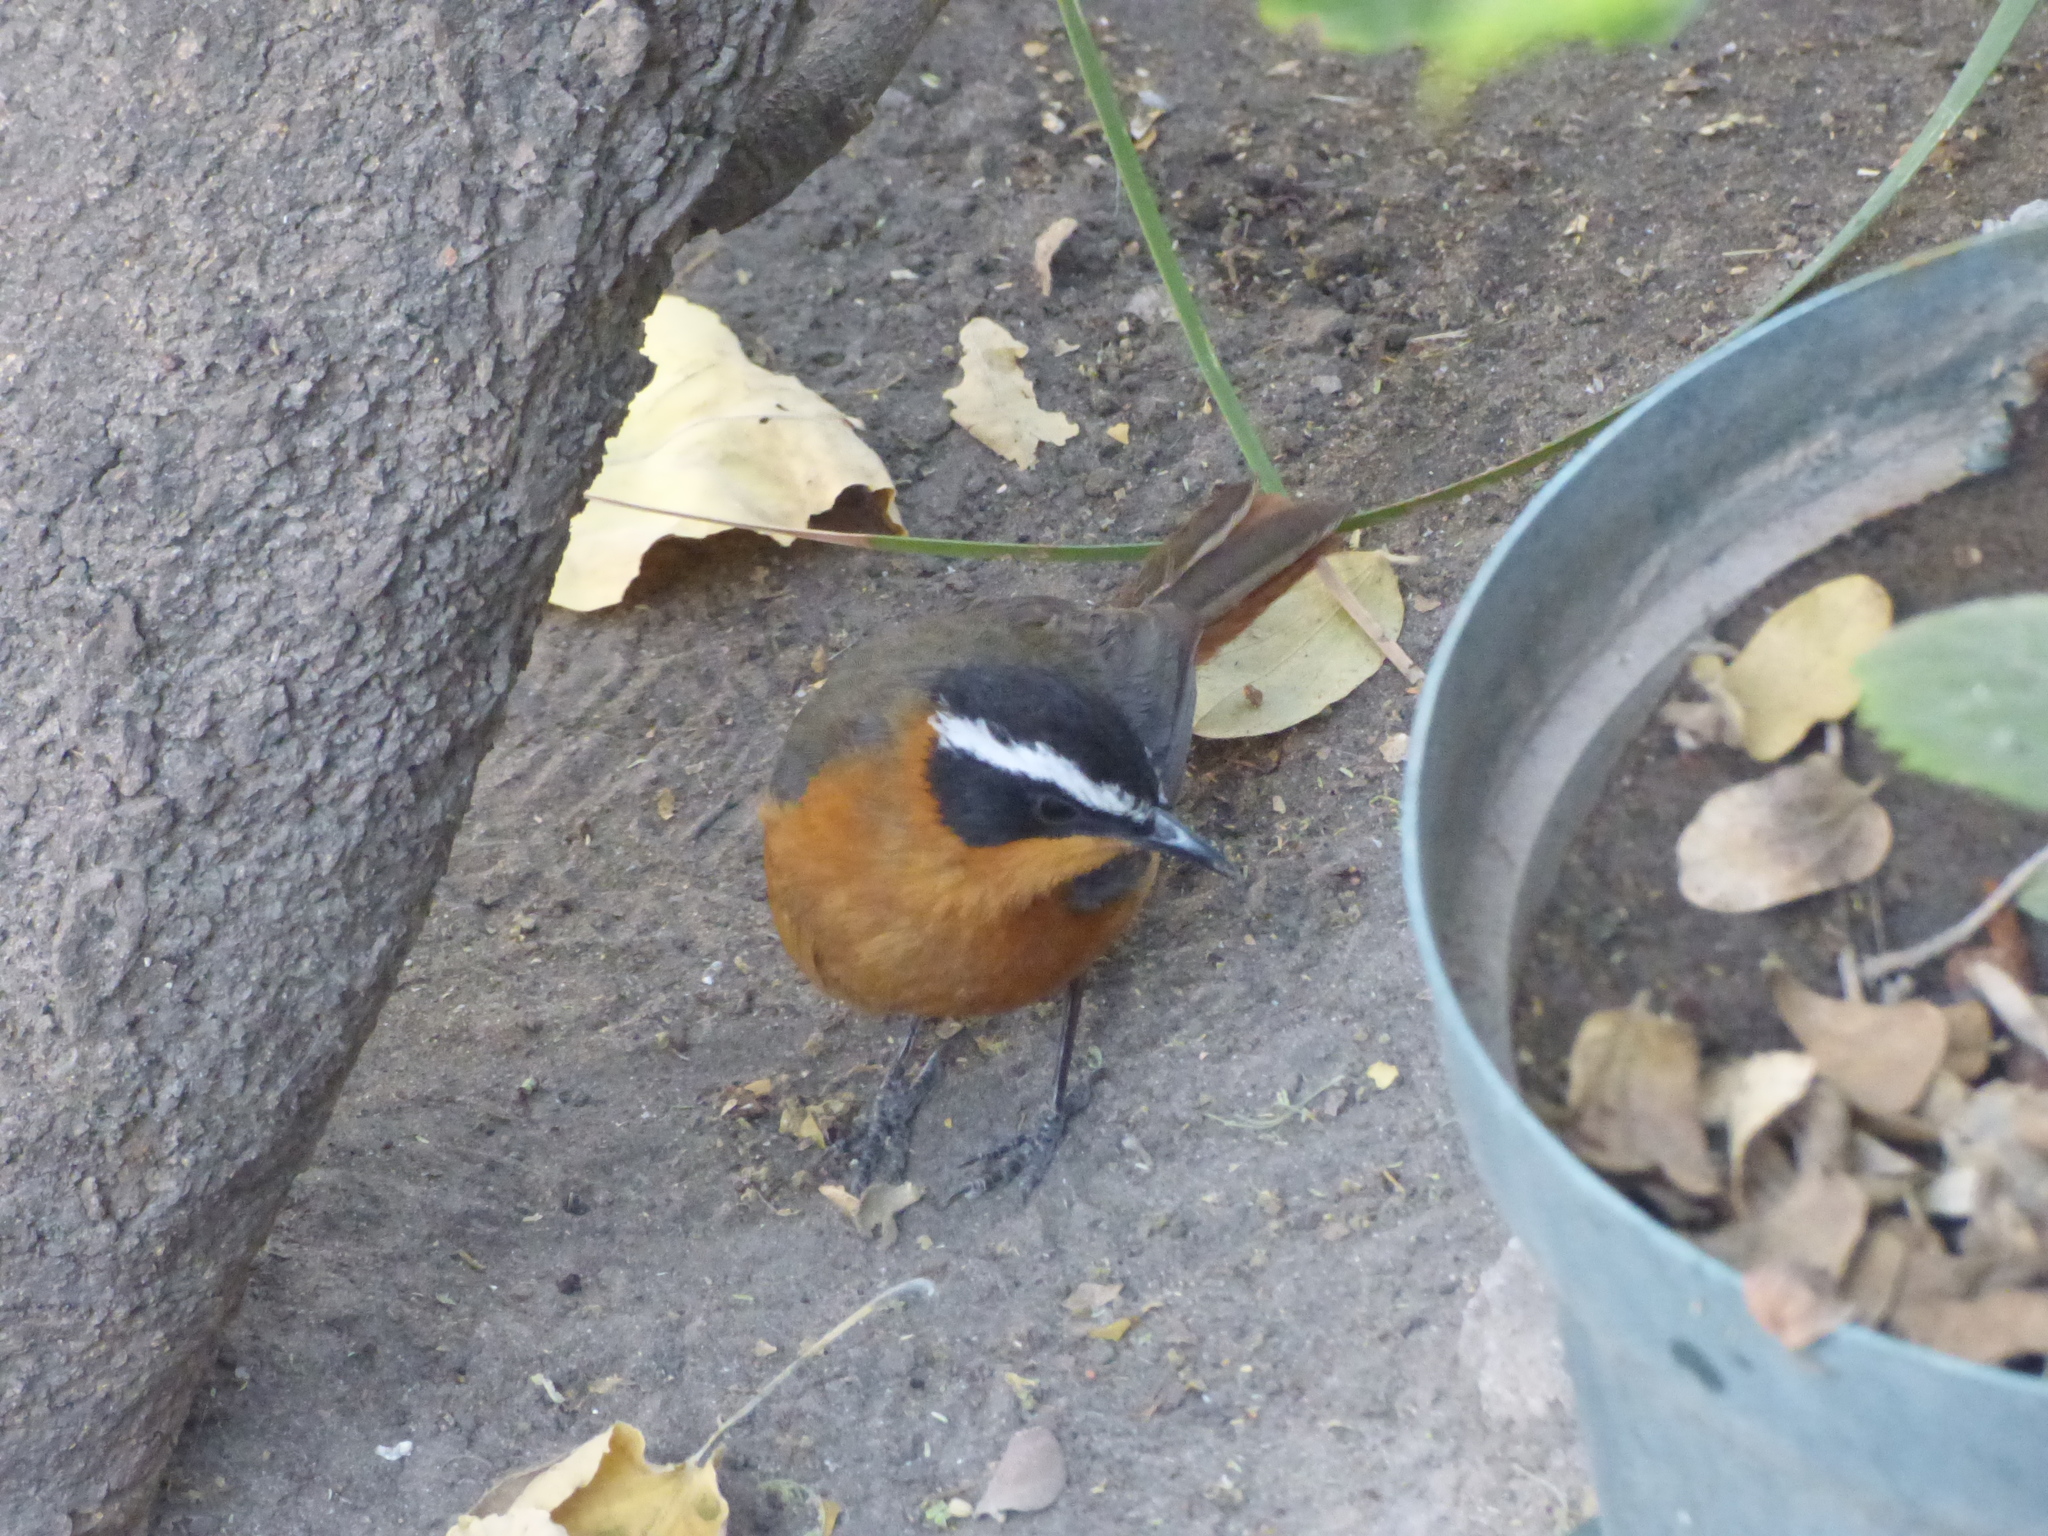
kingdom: Animalia
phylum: Chordata
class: Aves
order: Passeriformes
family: Muscicapidae
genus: Cossypha
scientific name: Cossypha heuglini
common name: White-browed robin-chat
